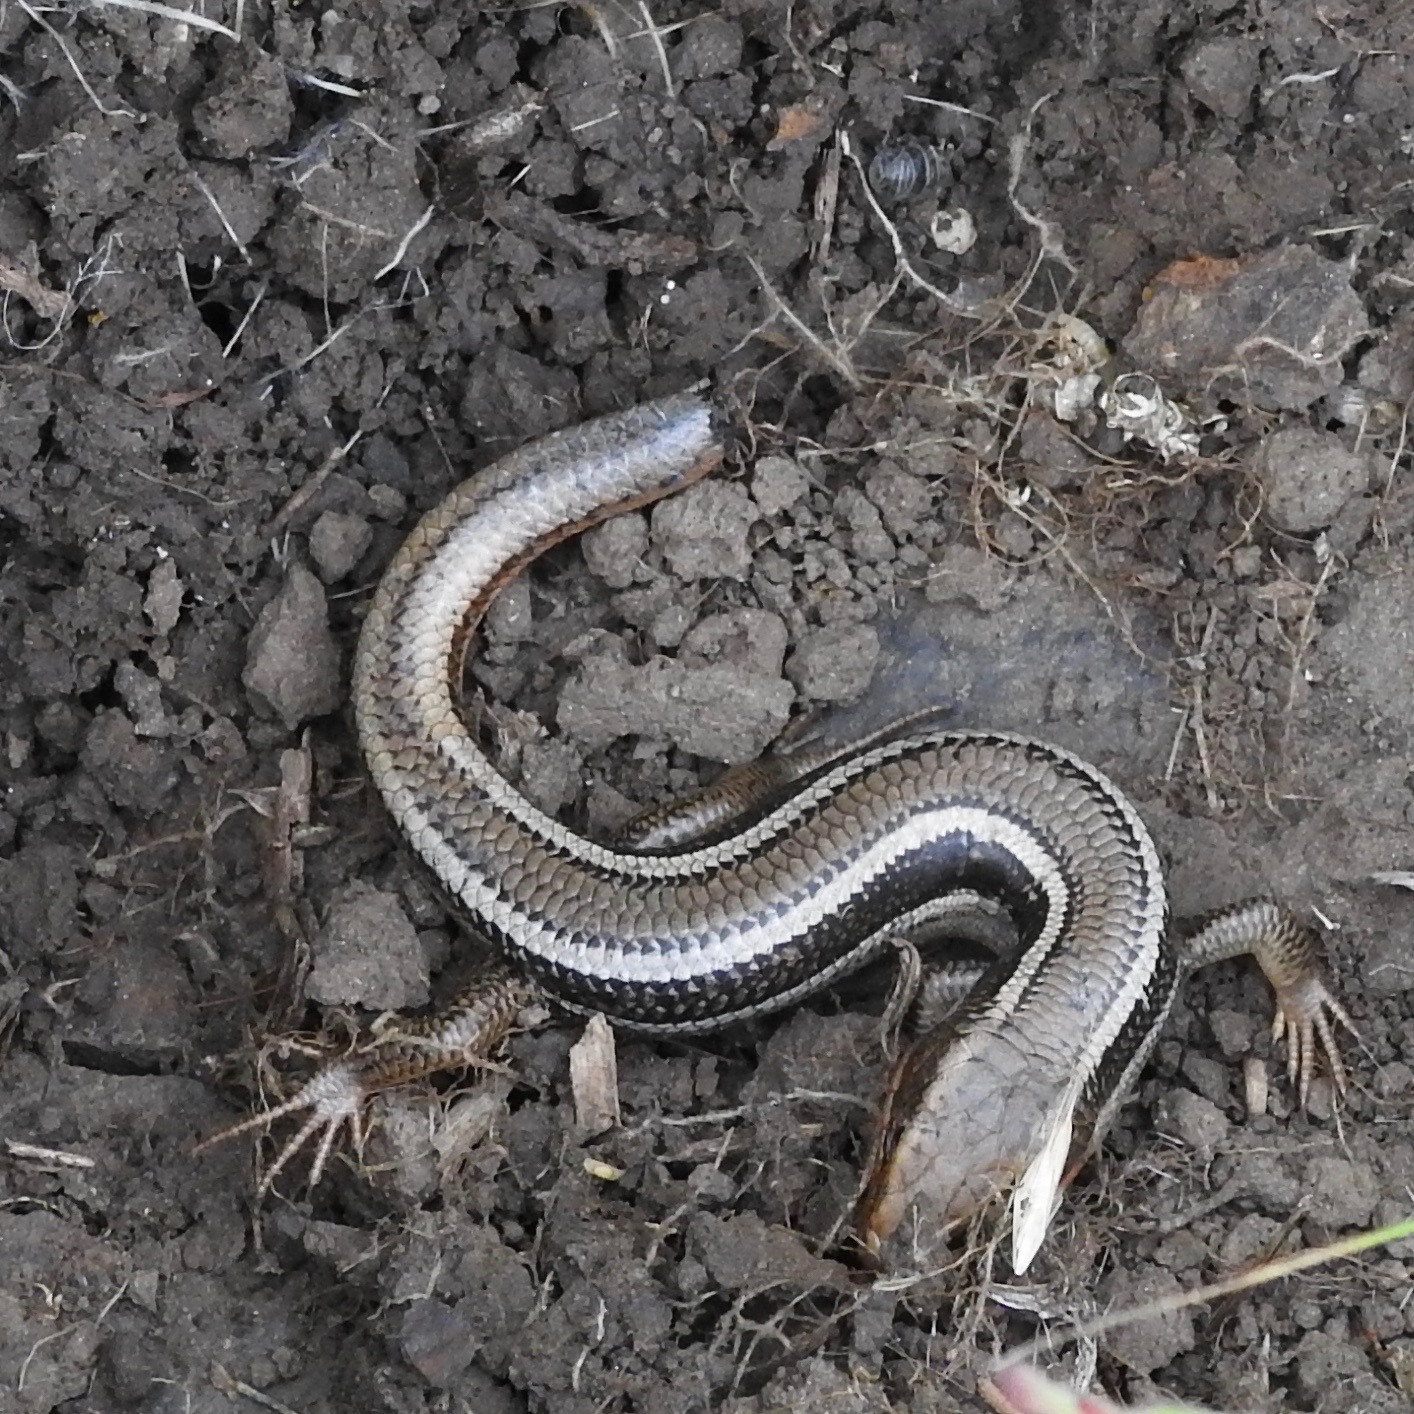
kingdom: Animalia
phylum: Chordata
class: Squamata
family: Scincidae
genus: Plestiodon
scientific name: Plestiodon skiltonianus
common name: Coronado island skink [interparietalis]
